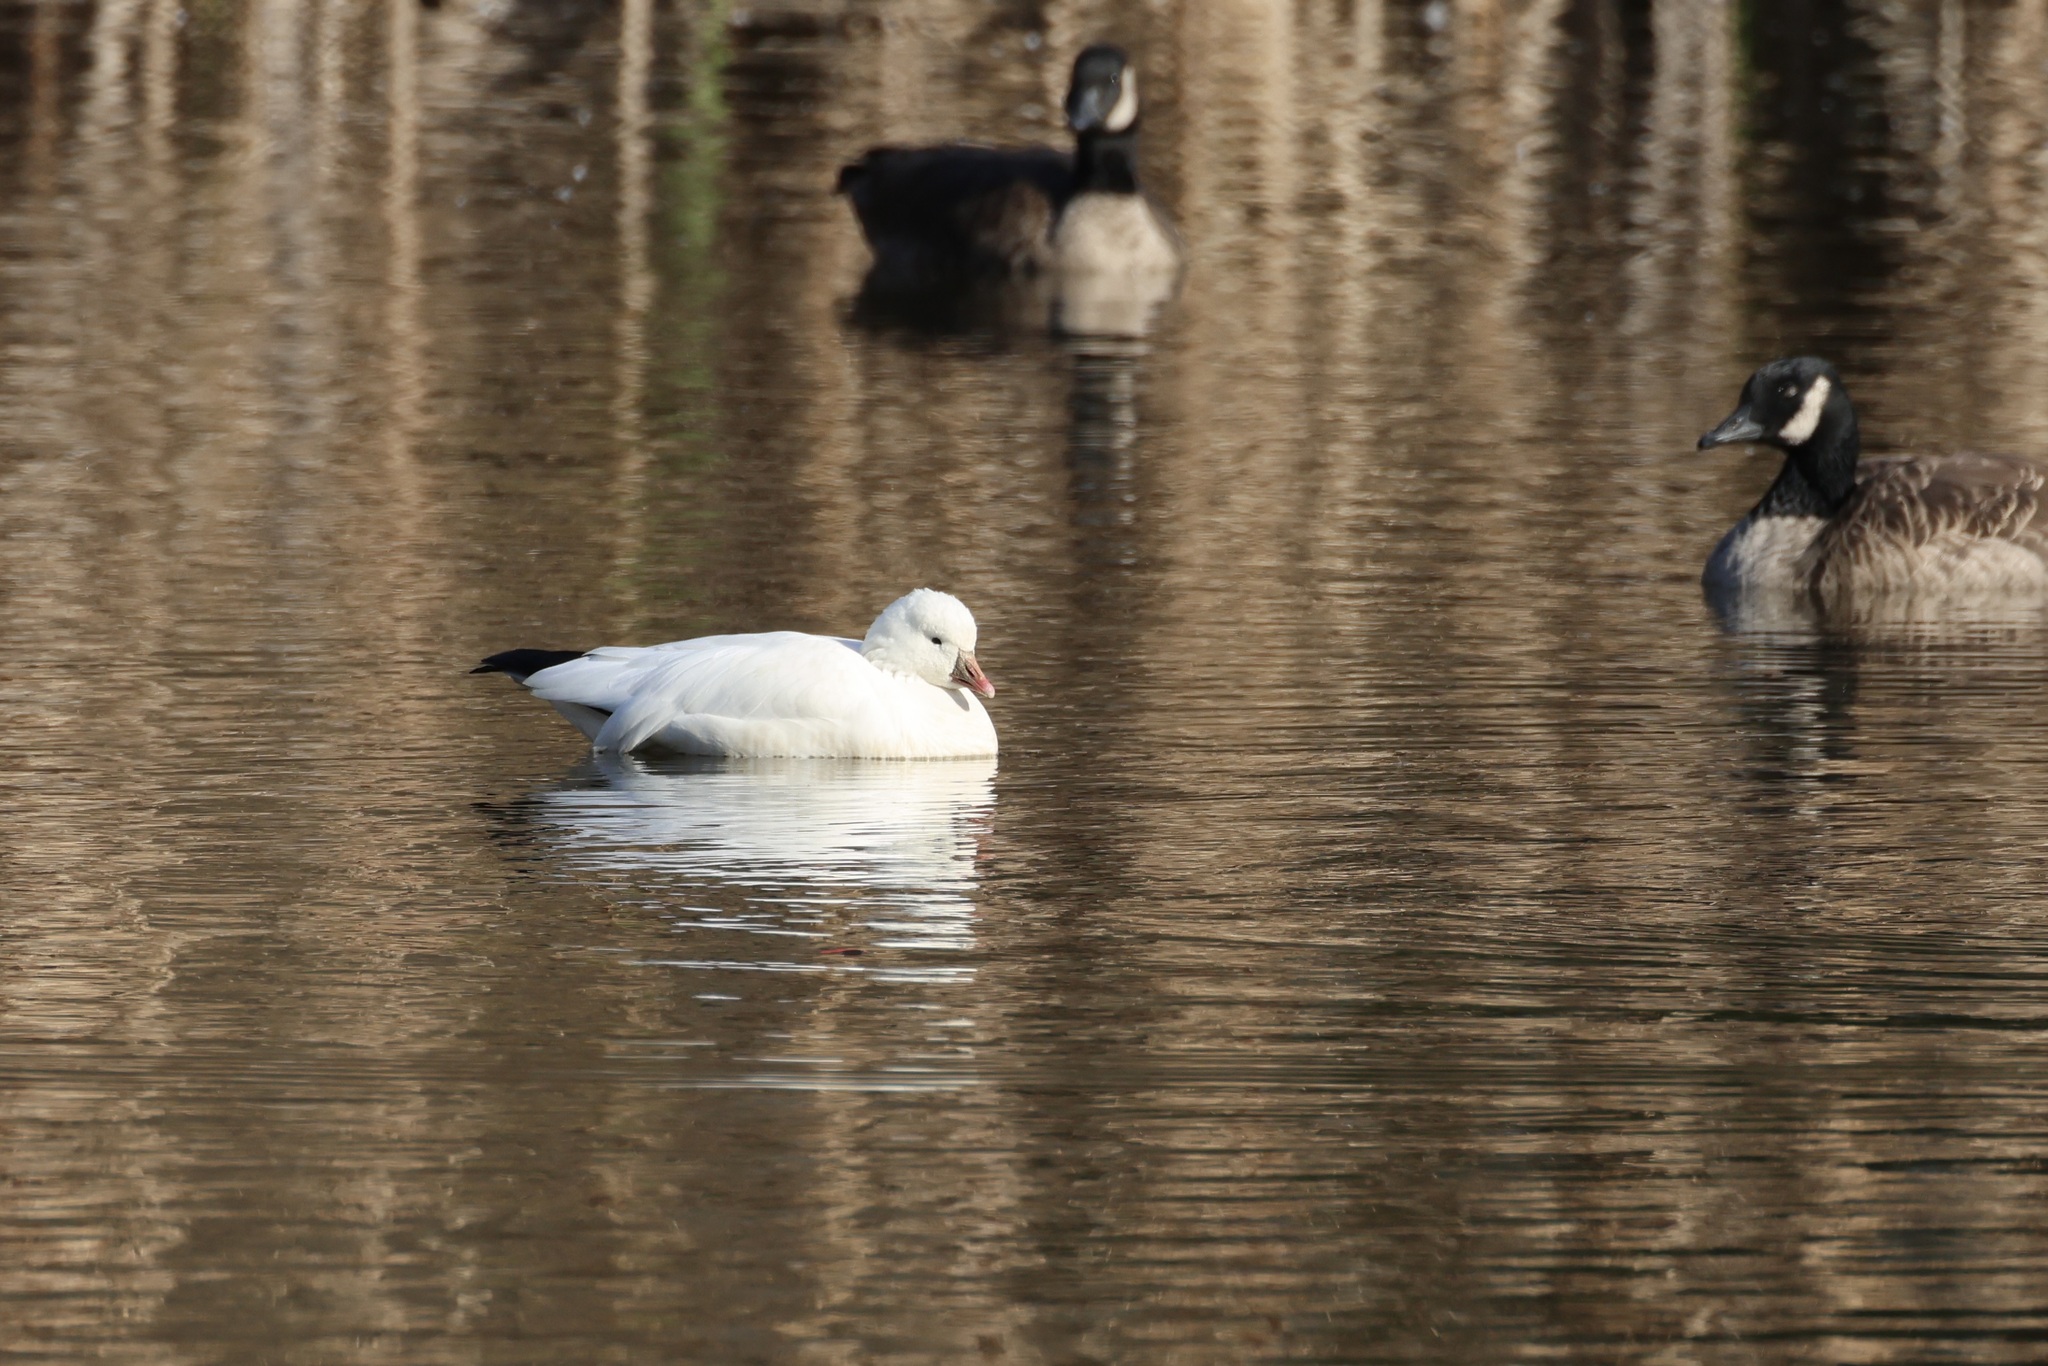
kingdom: Animalia
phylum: Chordata
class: Aves
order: Anseriformes
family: Anatidae
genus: Anser
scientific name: Anser rossii
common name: Ross's goose
